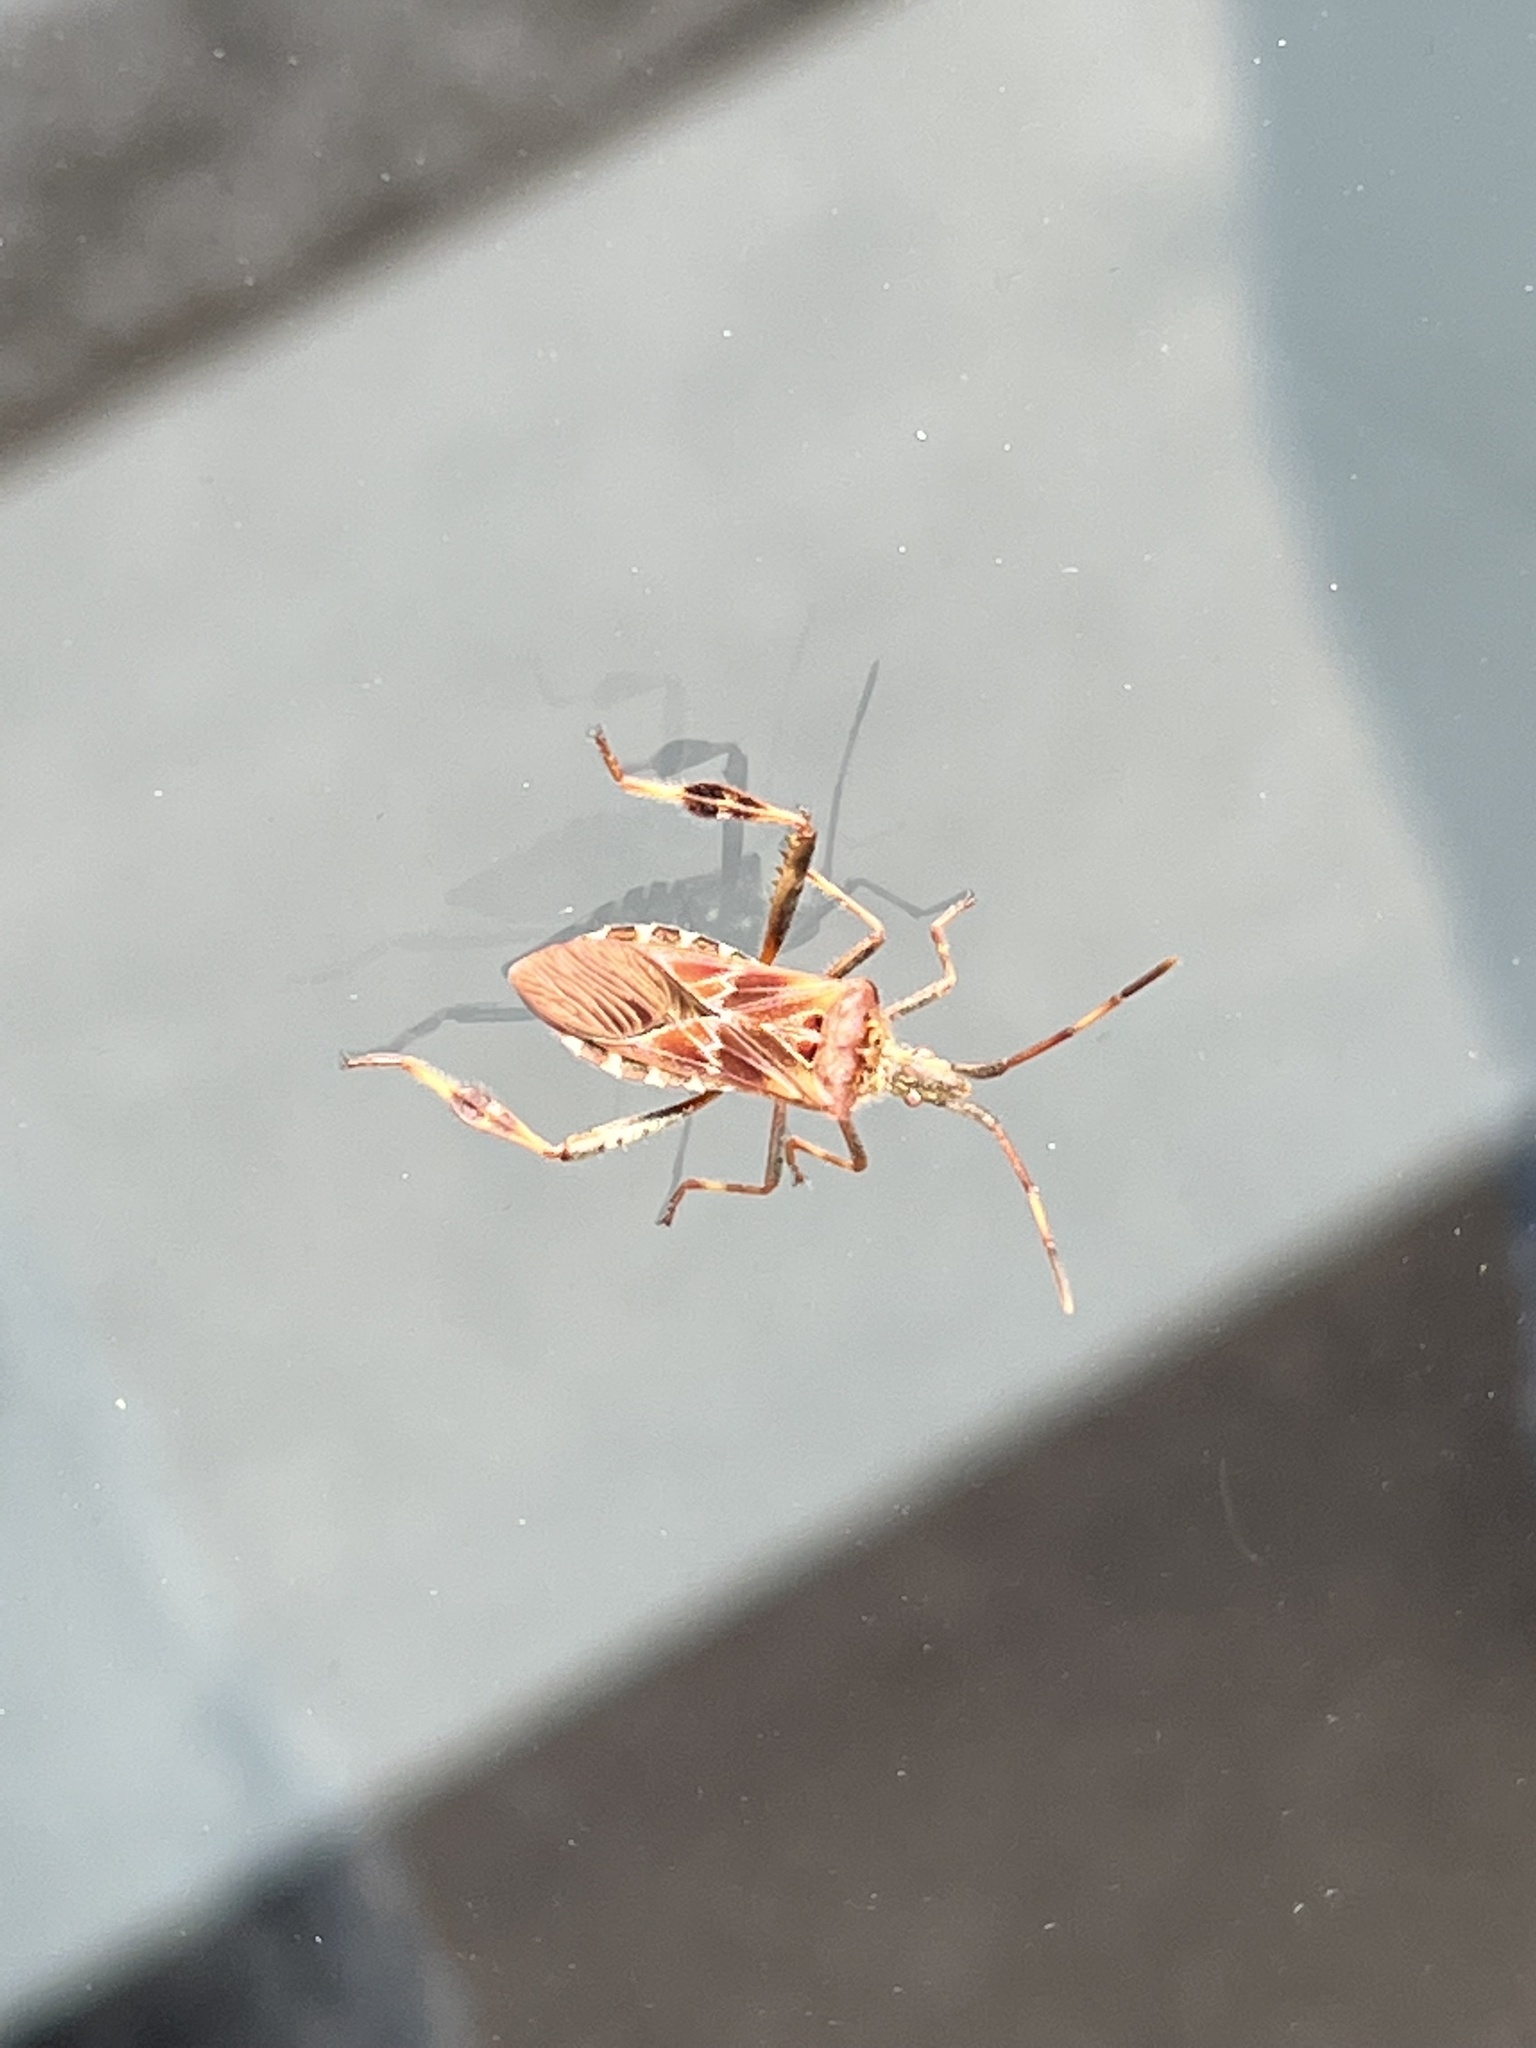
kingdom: Animalia
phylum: Arthropoda
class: Insecta
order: Hemiptera
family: Coreidae
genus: Leptoglossus
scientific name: Leptoglossus occidentalis
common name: Western conifer-seed bug
